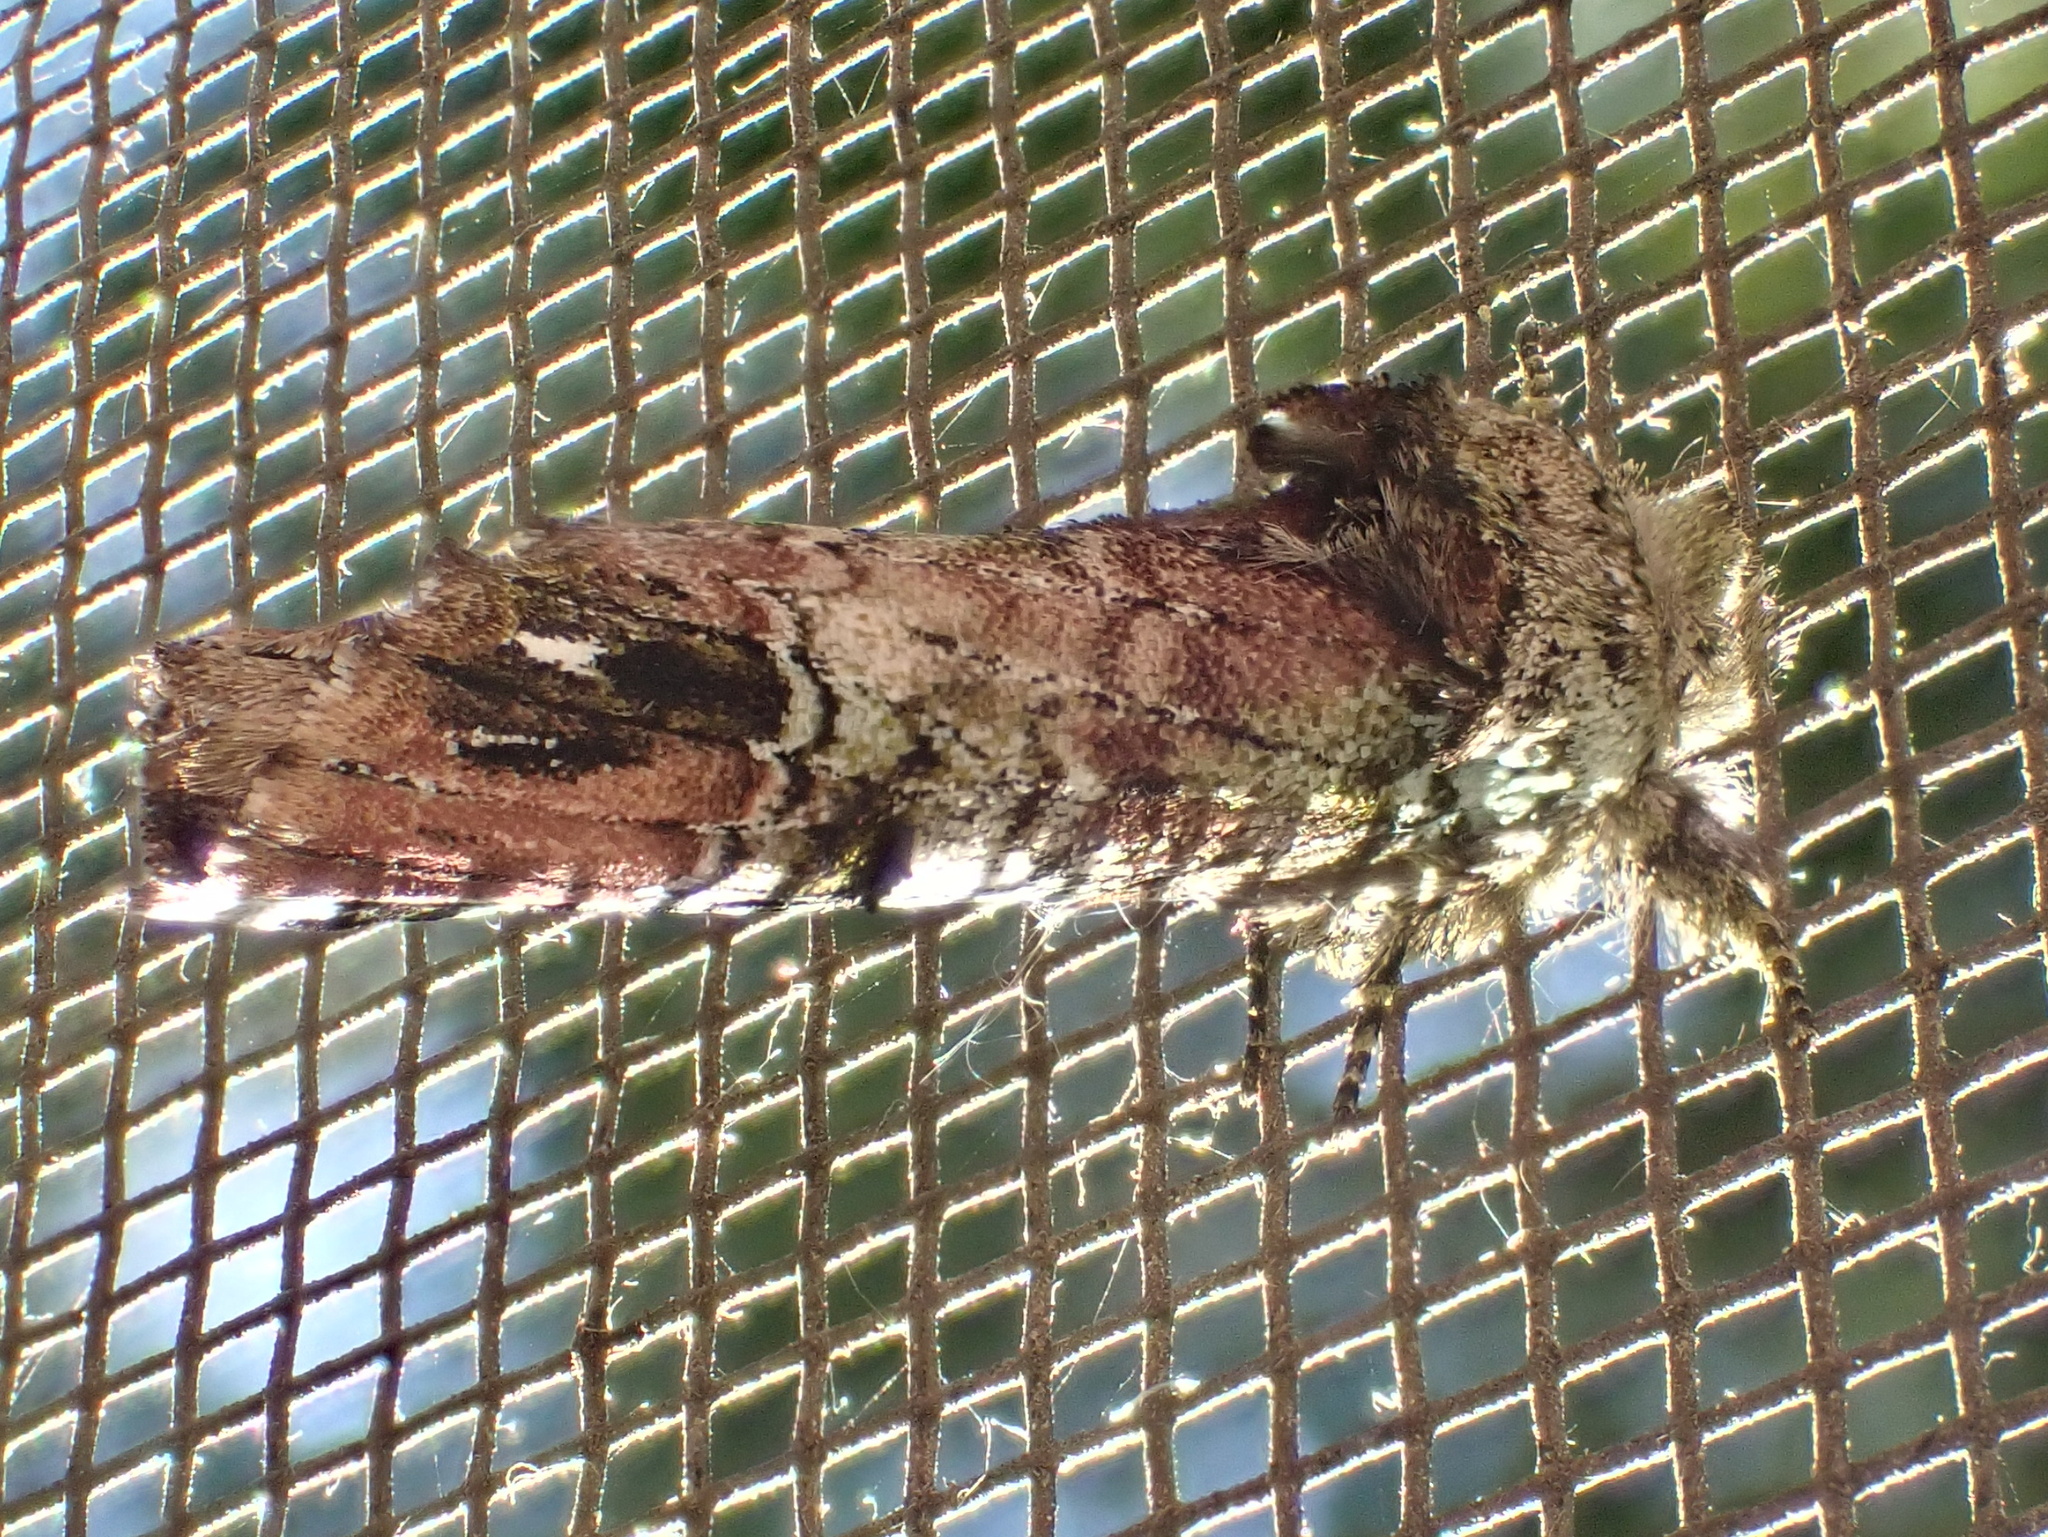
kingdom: Animalia
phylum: Arthropoda
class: Insecta
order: Lepidoptera
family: Notodontidae
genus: Schizura
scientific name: Schizura
